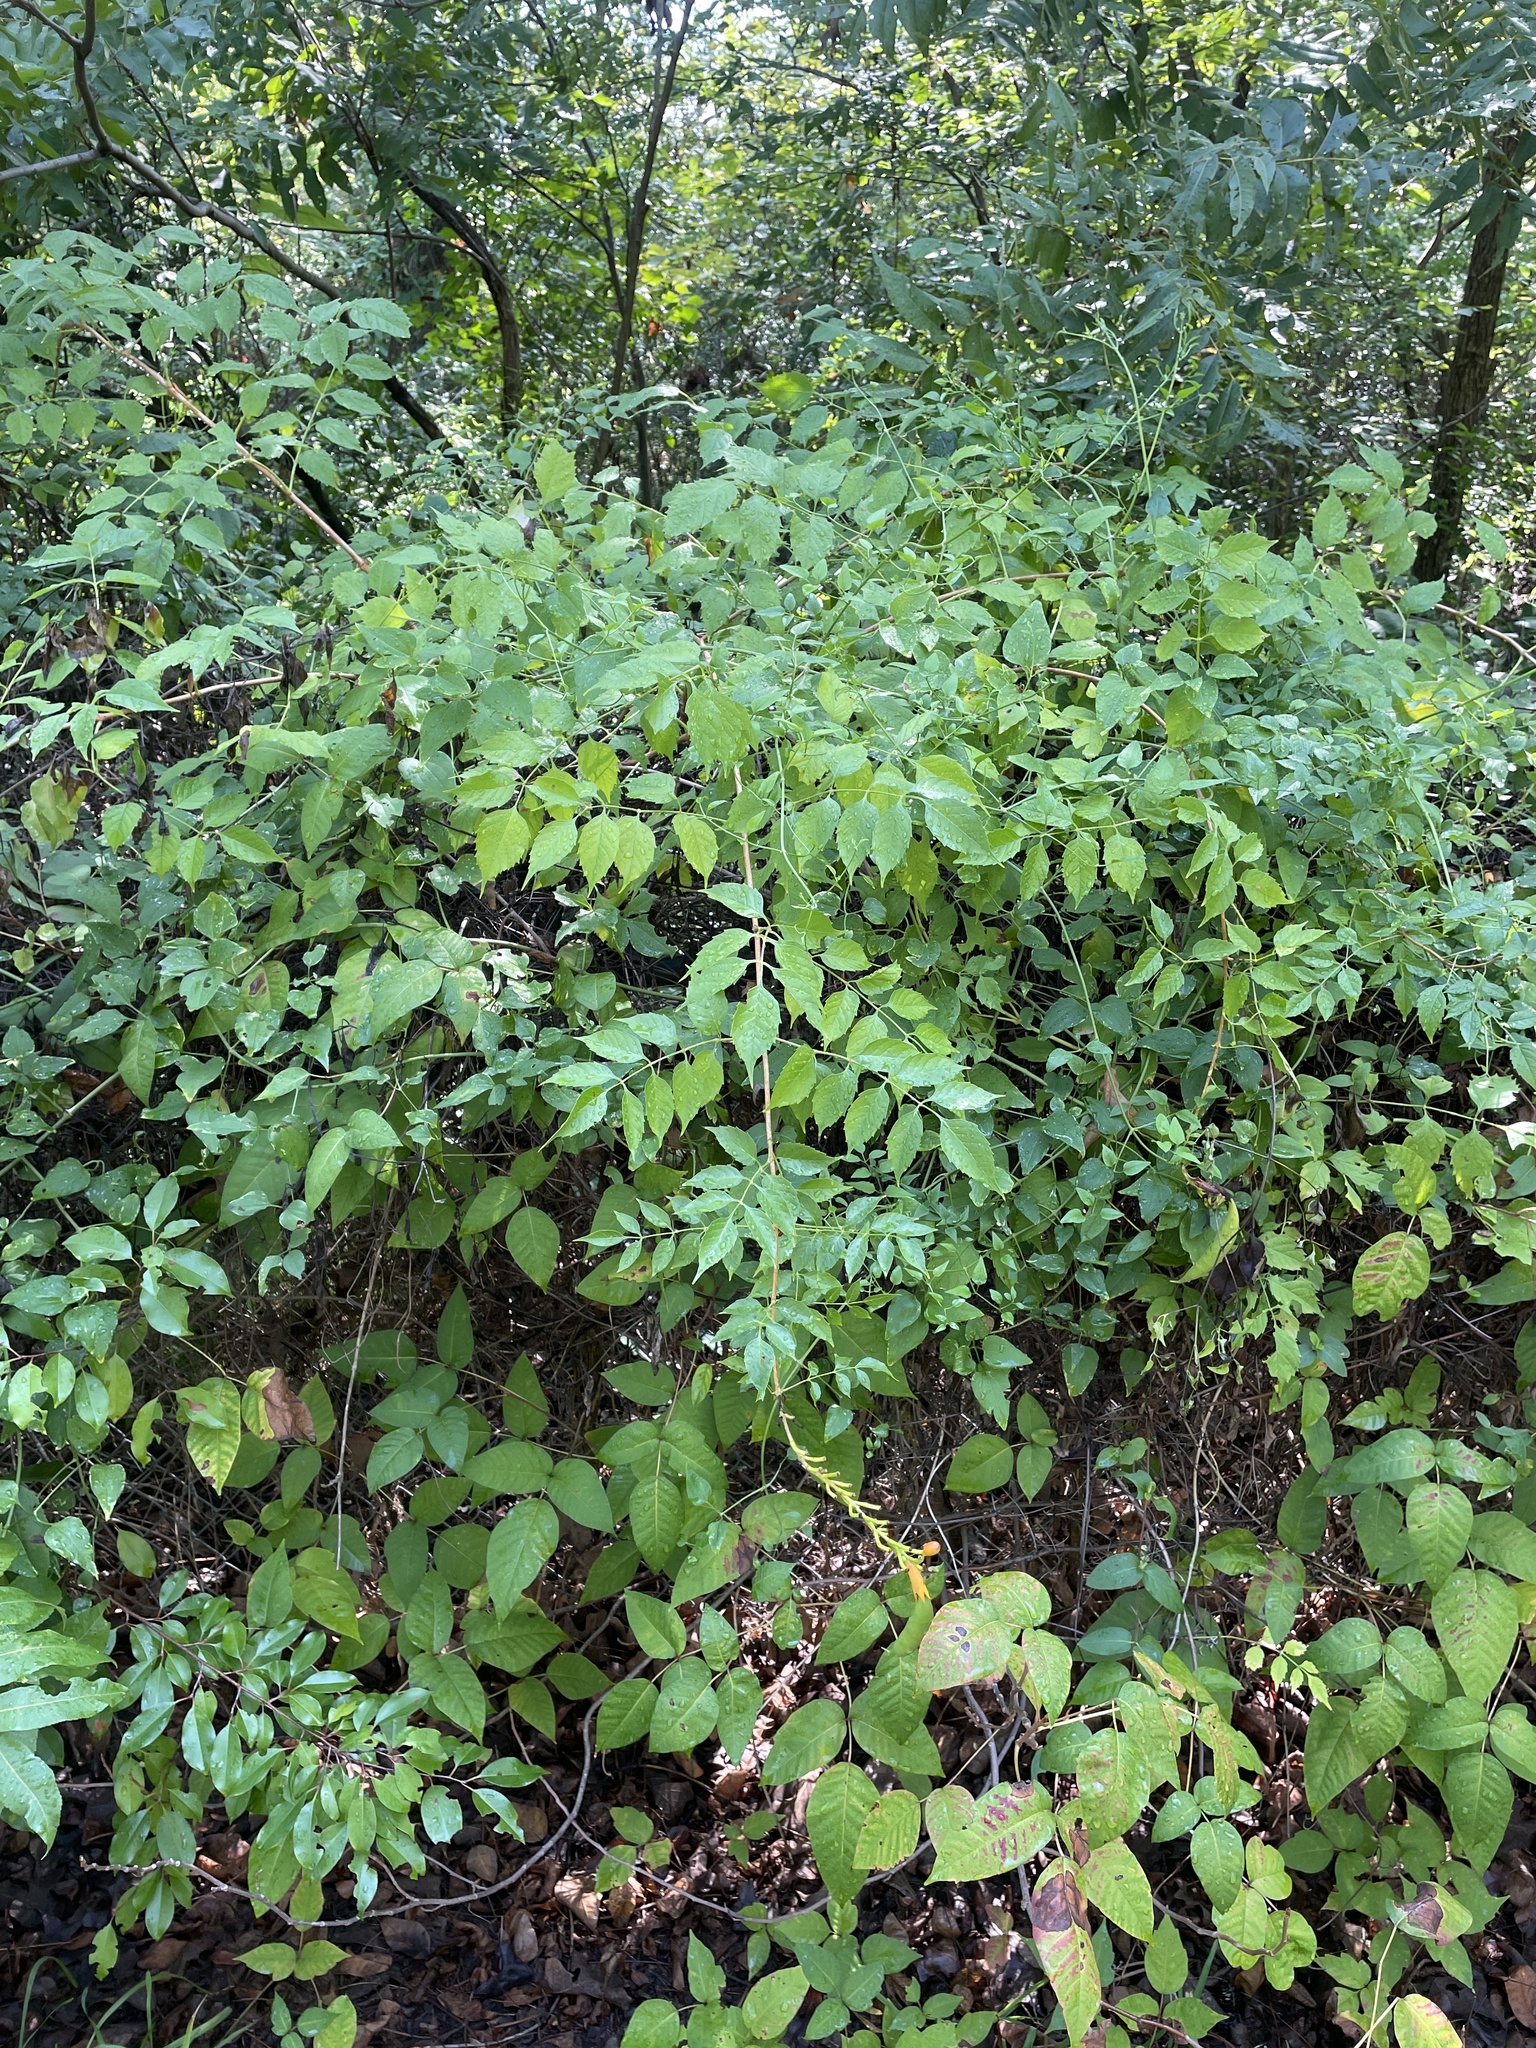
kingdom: Plantae
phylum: Tracheophyta
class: Magnoliopsida
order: Lamiales
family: Bignoniaceae
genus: Campsis
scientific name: Campsis radicans
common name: Trumpet-creeper
